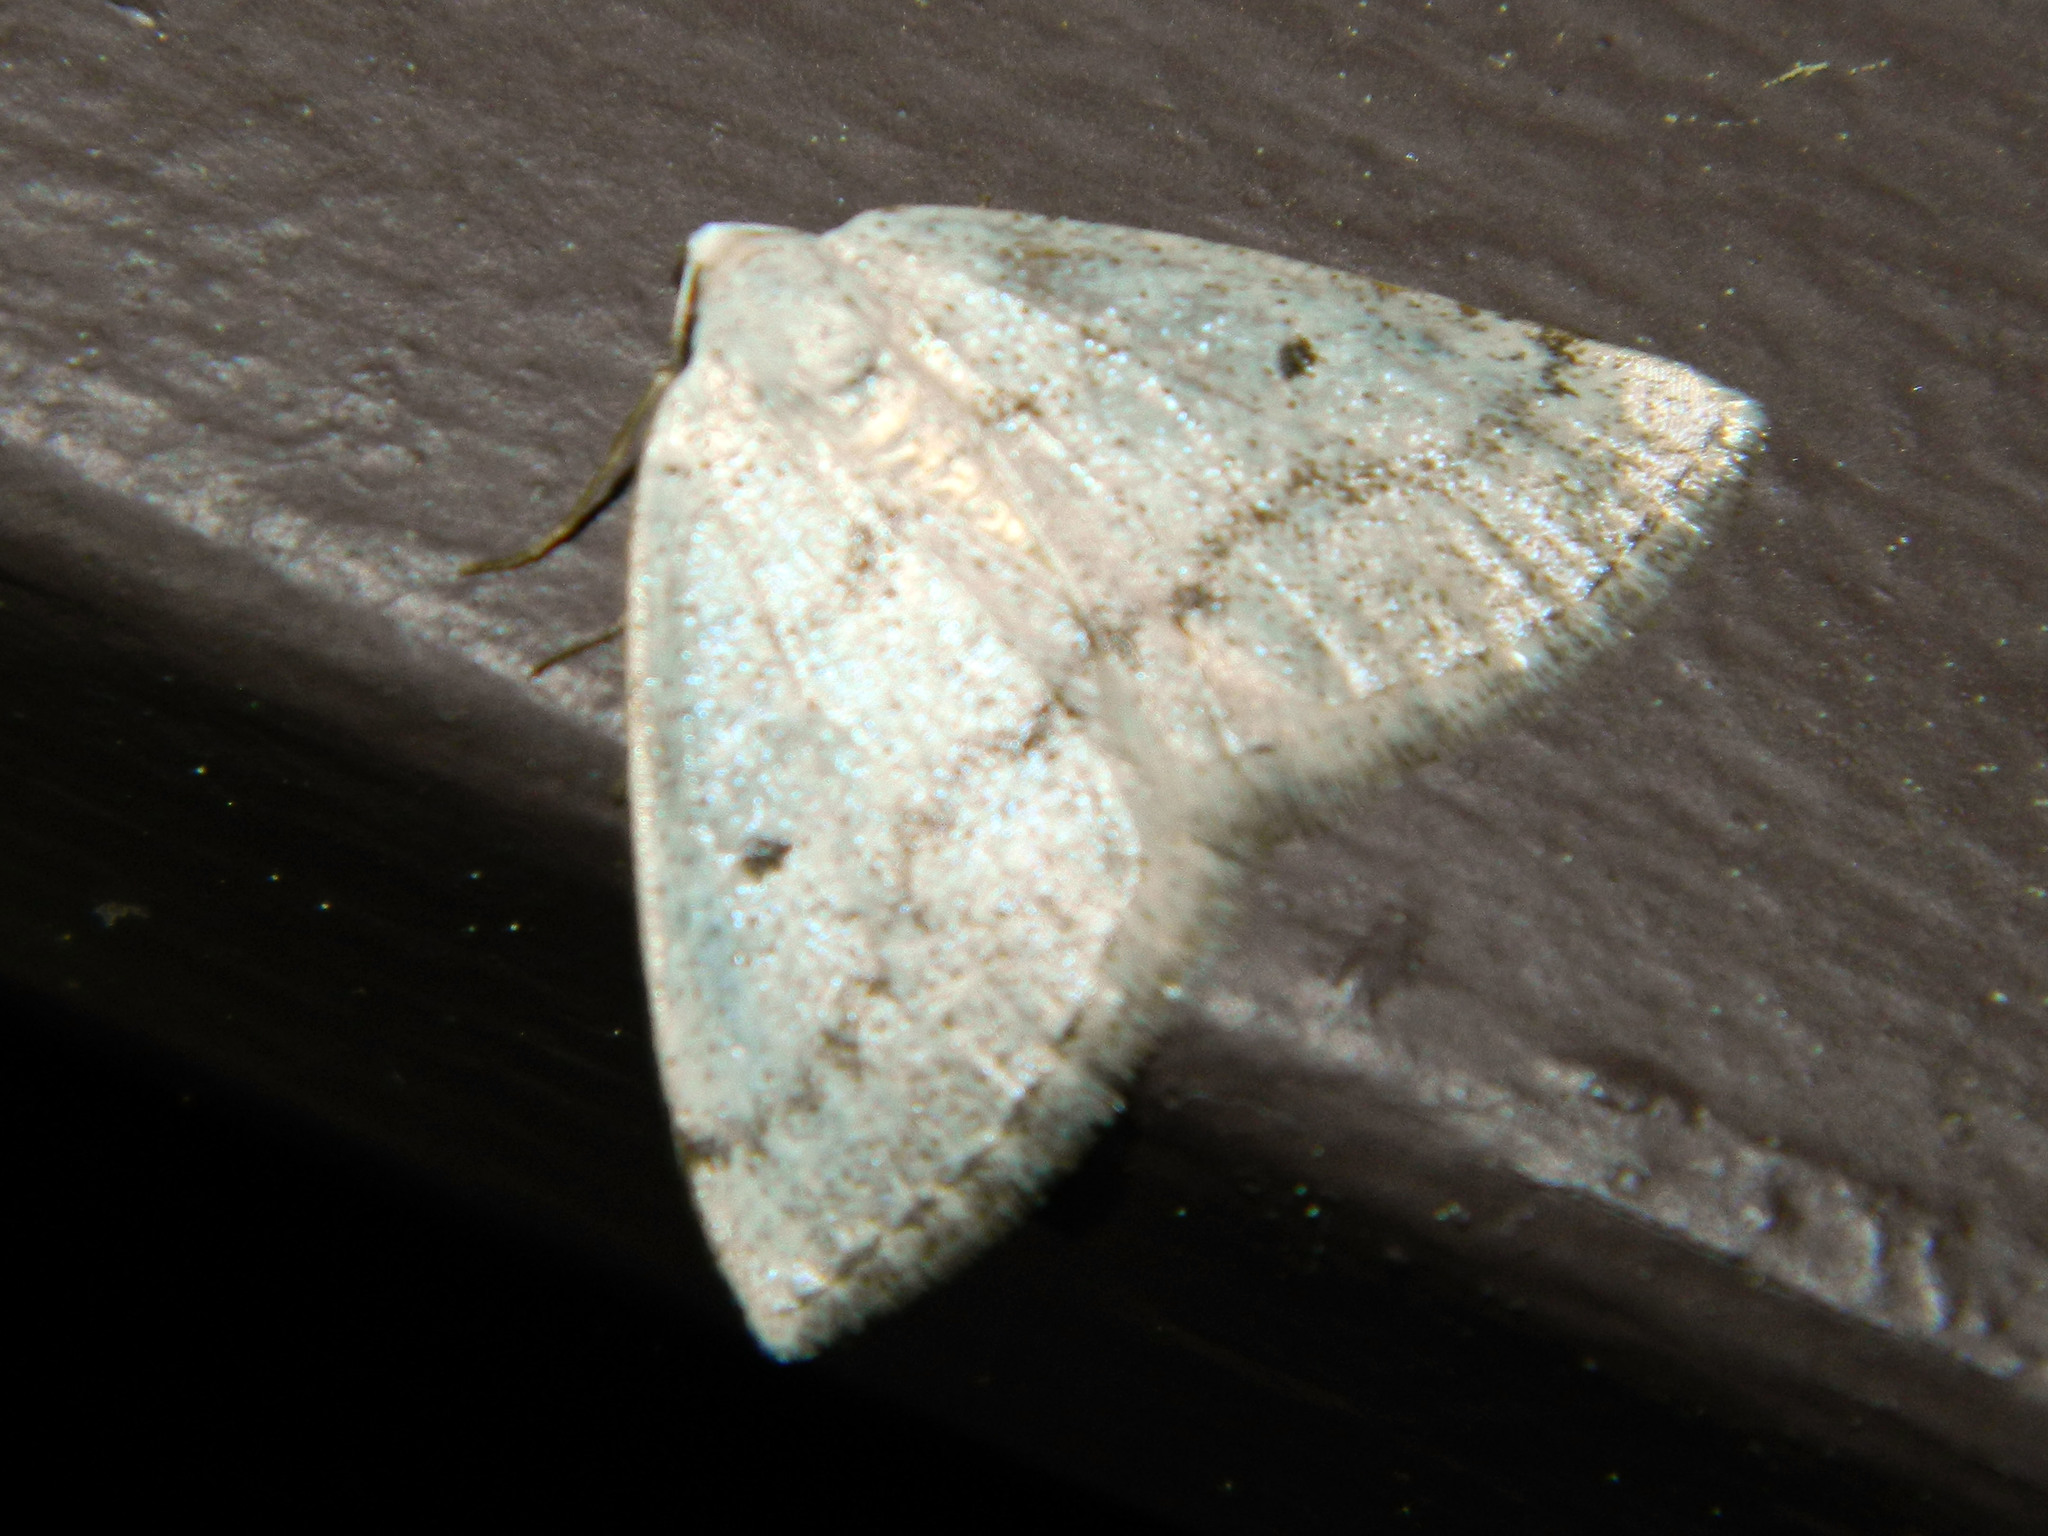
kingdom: Animalia
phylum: Arthropoda
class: Insecta
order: Lepidoptera
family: Geometridae
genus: Lomographa
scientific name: Lomographa glomeraria
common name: Gray spring moth
